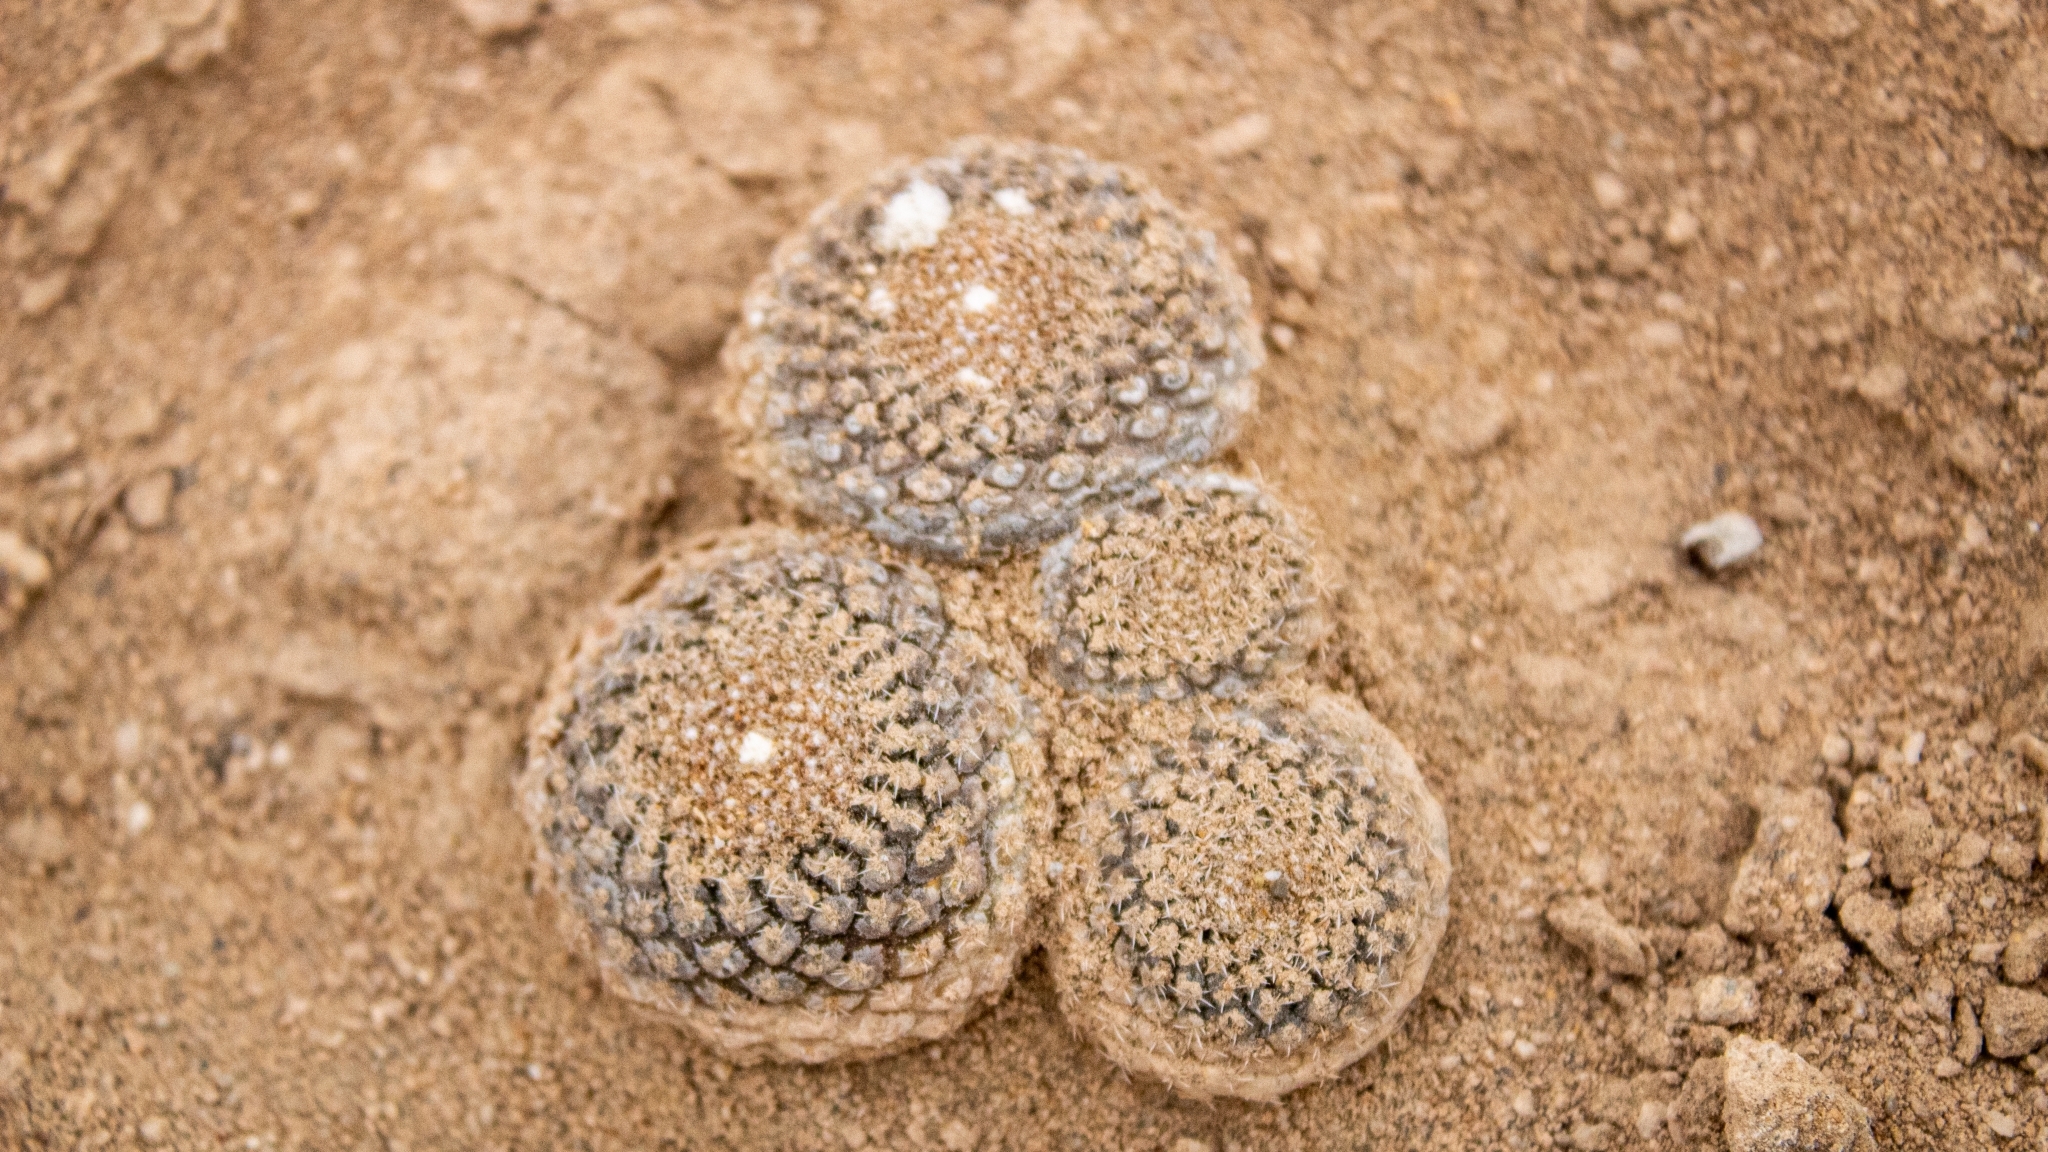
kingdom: Plantae
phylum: Tracheophyta
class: Magnoliopsida
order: Caryophyllales
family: Cactaceae
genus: Eriosyce
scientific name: Eriosyce odieri
